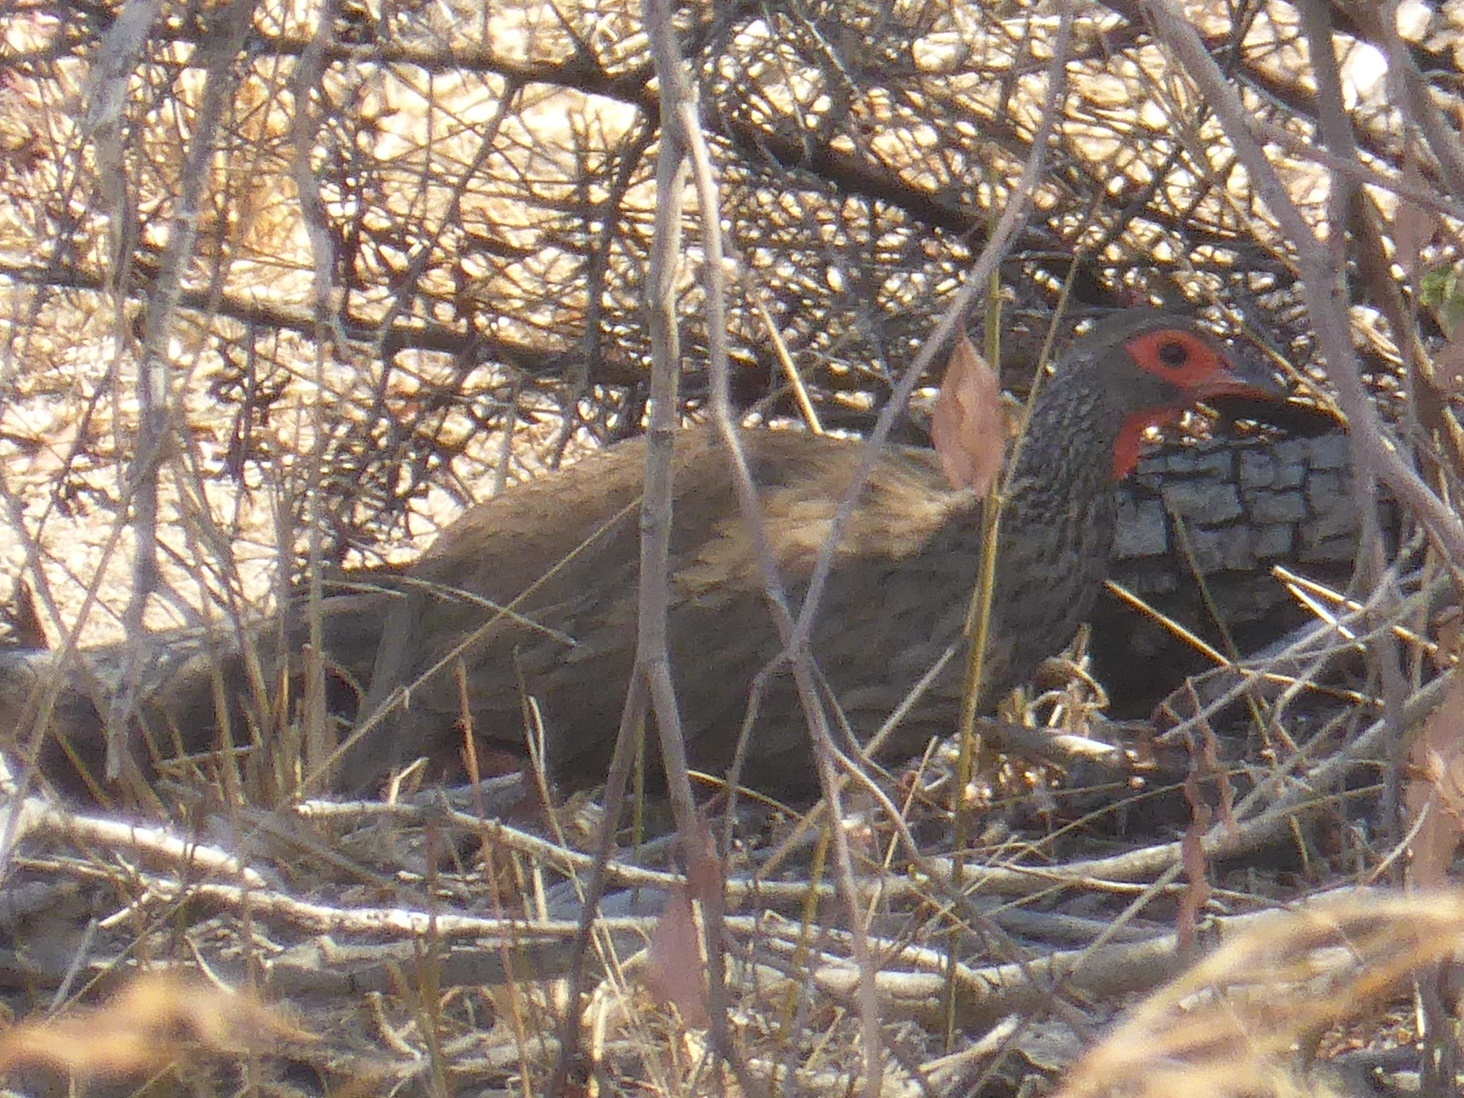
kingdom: Animalia
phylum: Chordata
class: Aves
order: Galliformes
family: Phasianidae
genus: Pternistis
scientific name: Pternistis swainsonii
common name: Swainson's spurfowl
